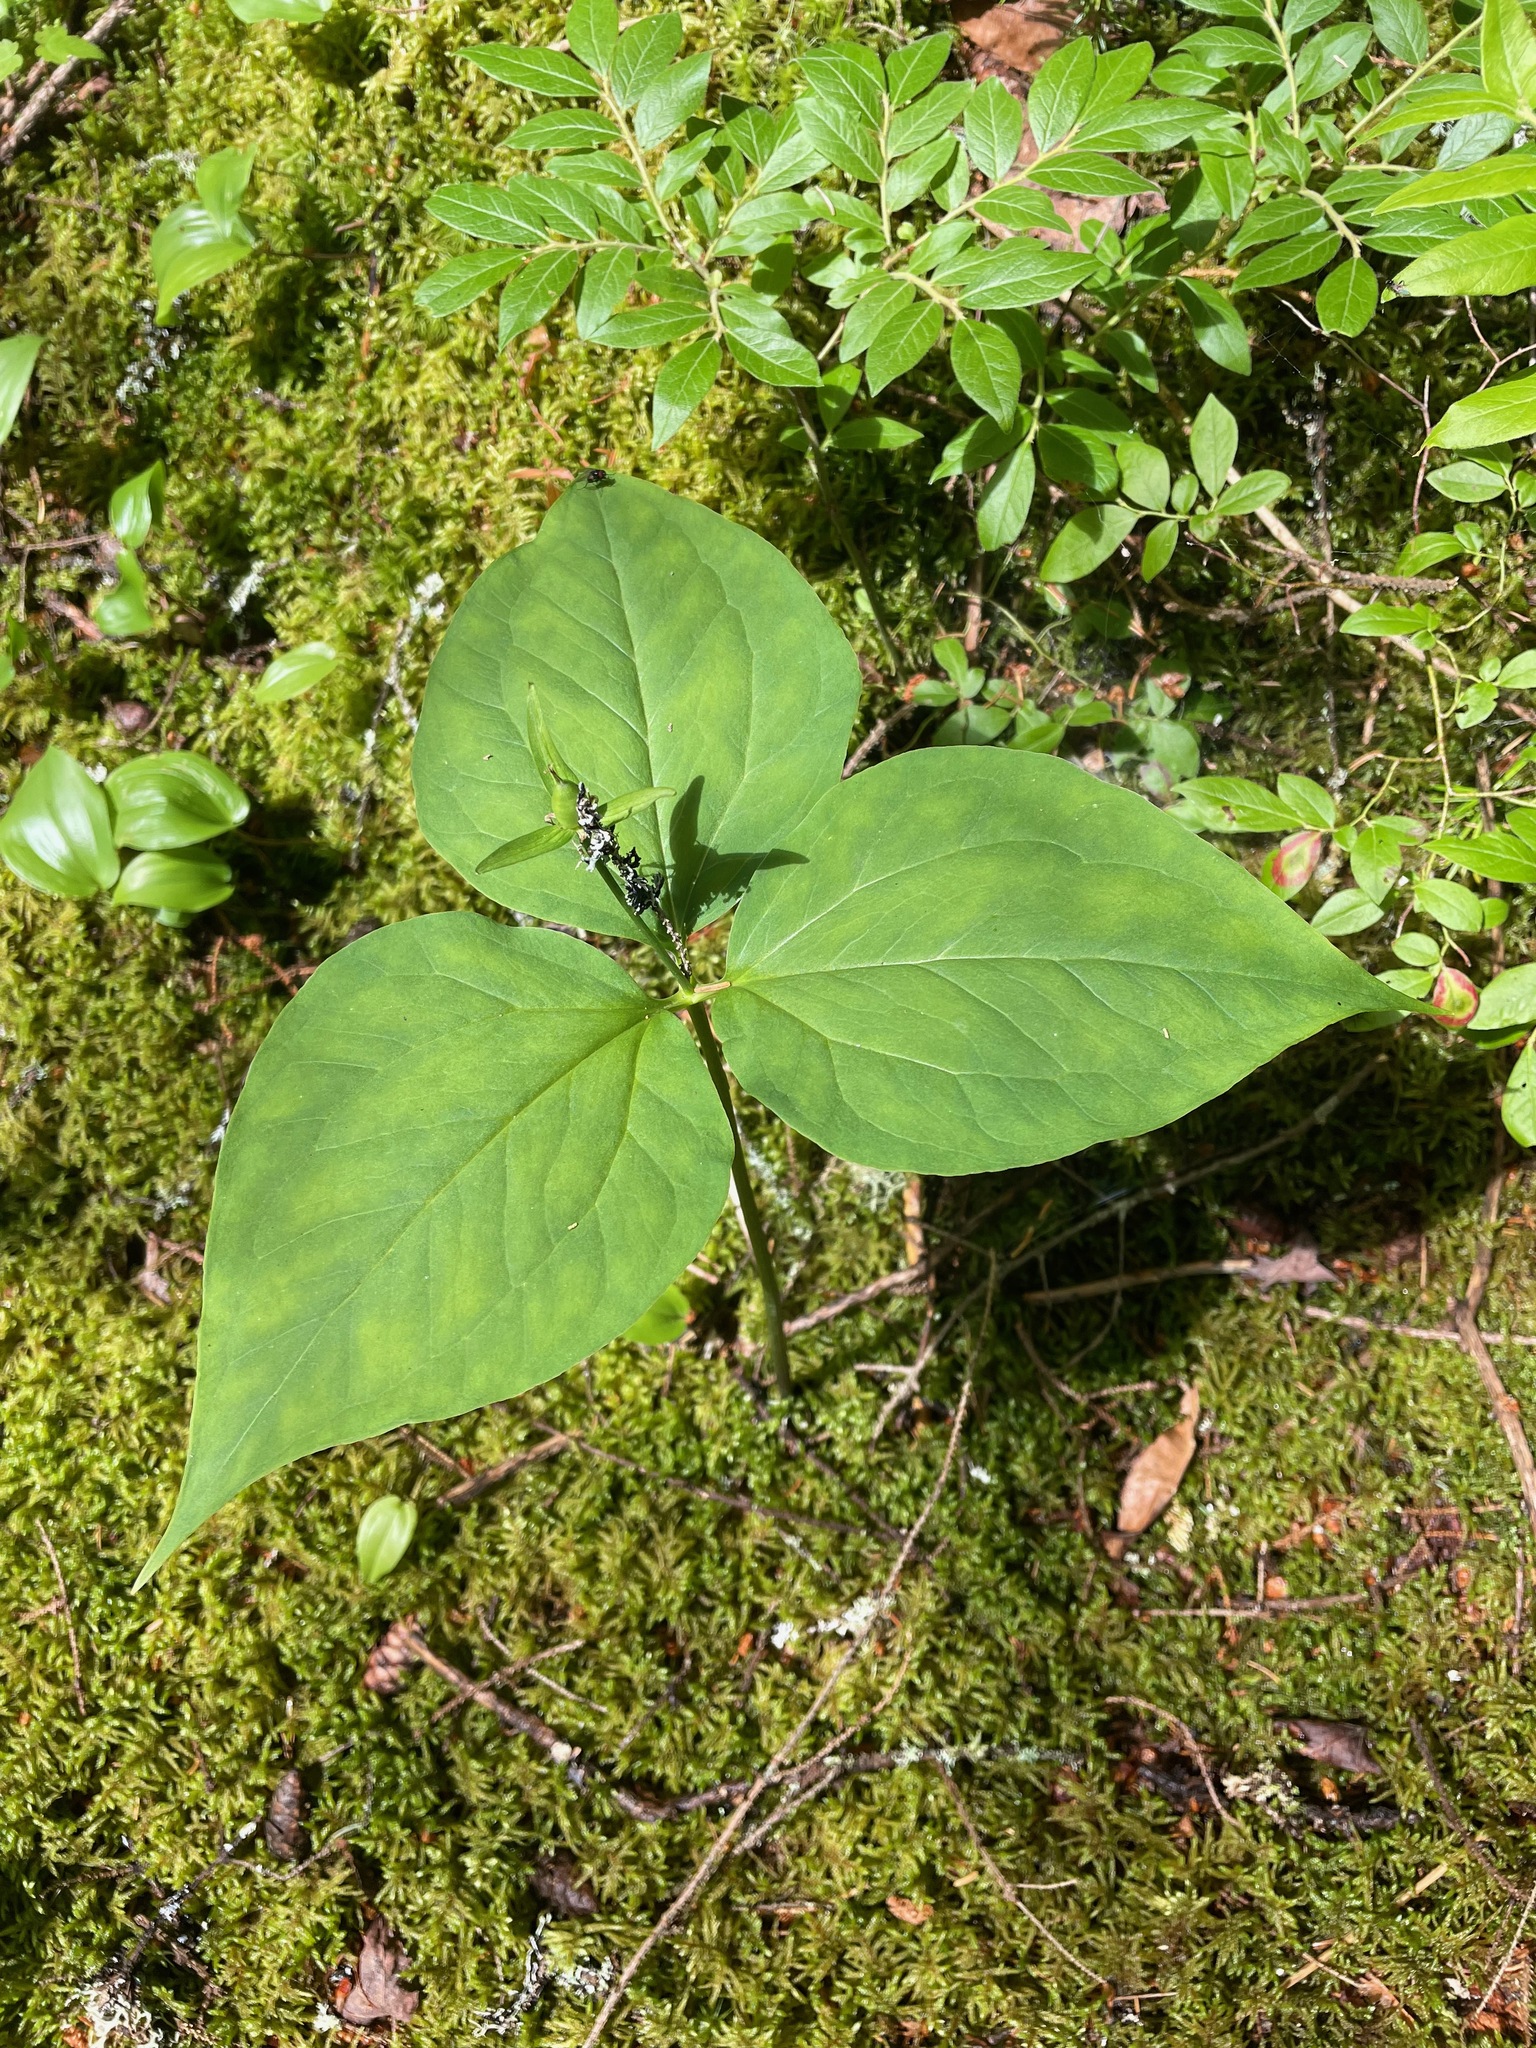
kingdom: Plantae
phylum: Tracheophyta
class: Liliopsida
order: Liliales
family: Melanthiaceae
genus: Trillium
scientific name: Trillium undulatum
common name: Paint trillium
